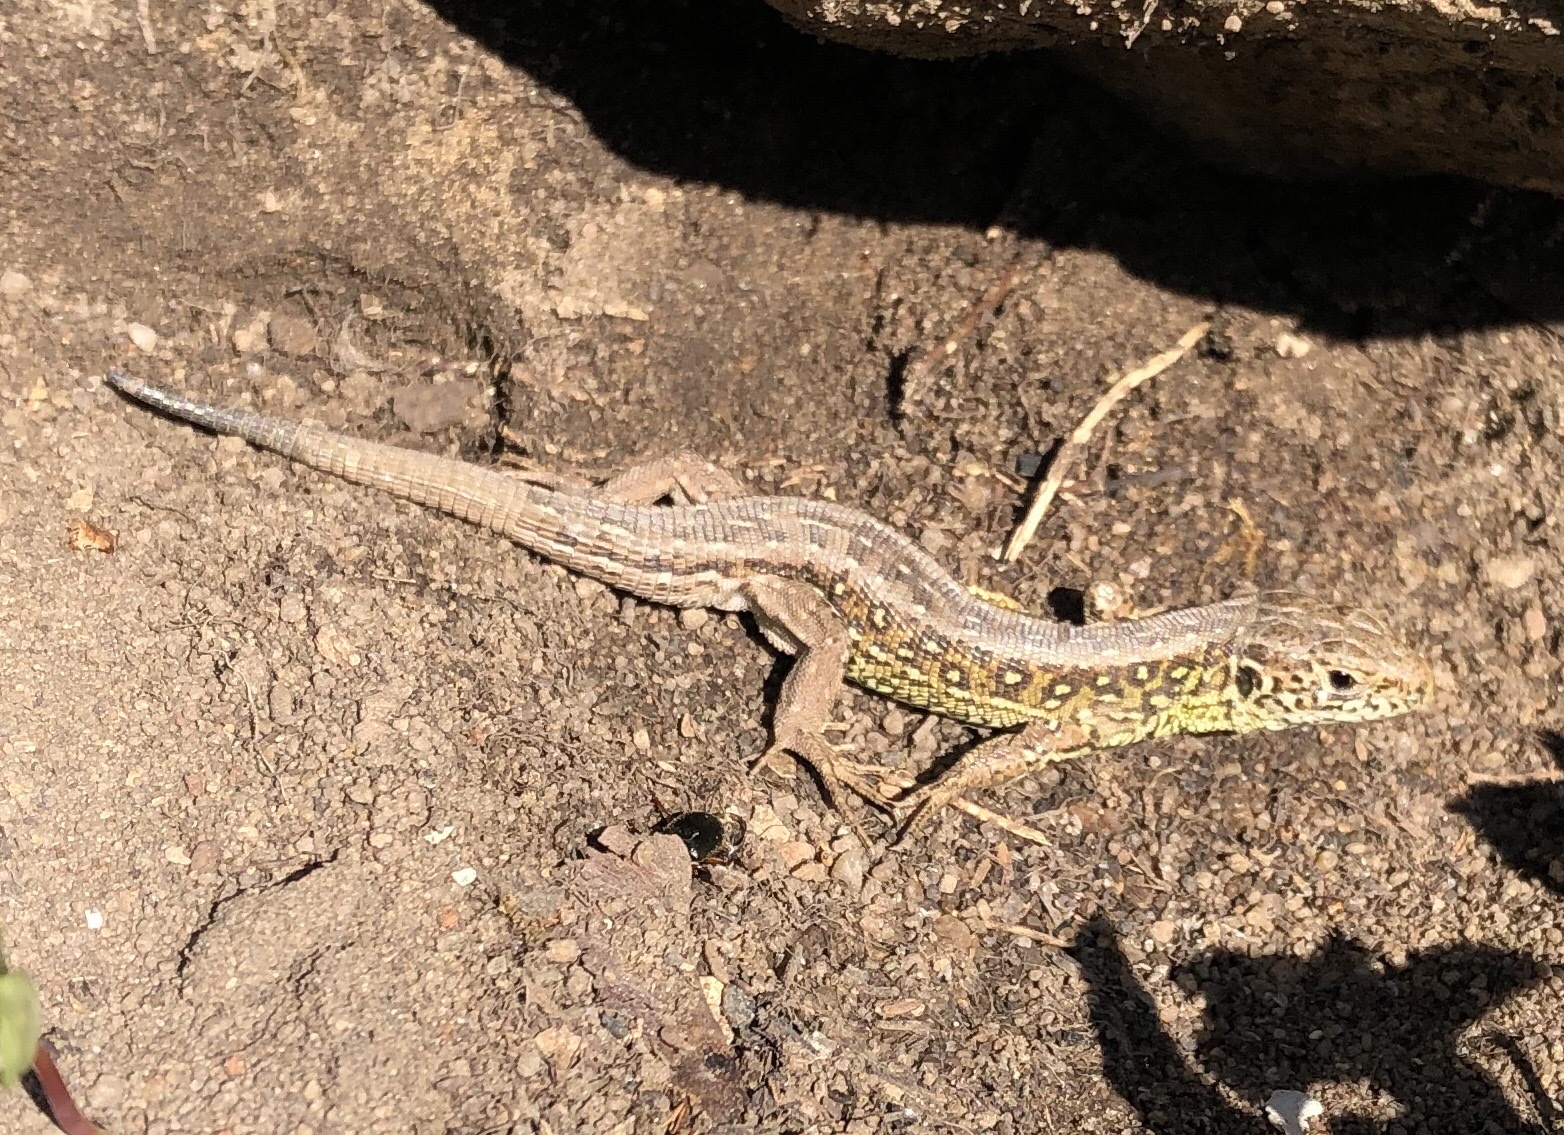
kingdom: Animalia
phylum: Chordata
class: Squamata
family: Lacertidae
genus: Lacerta
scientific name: Lacerta agilis
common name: Sand lizard
